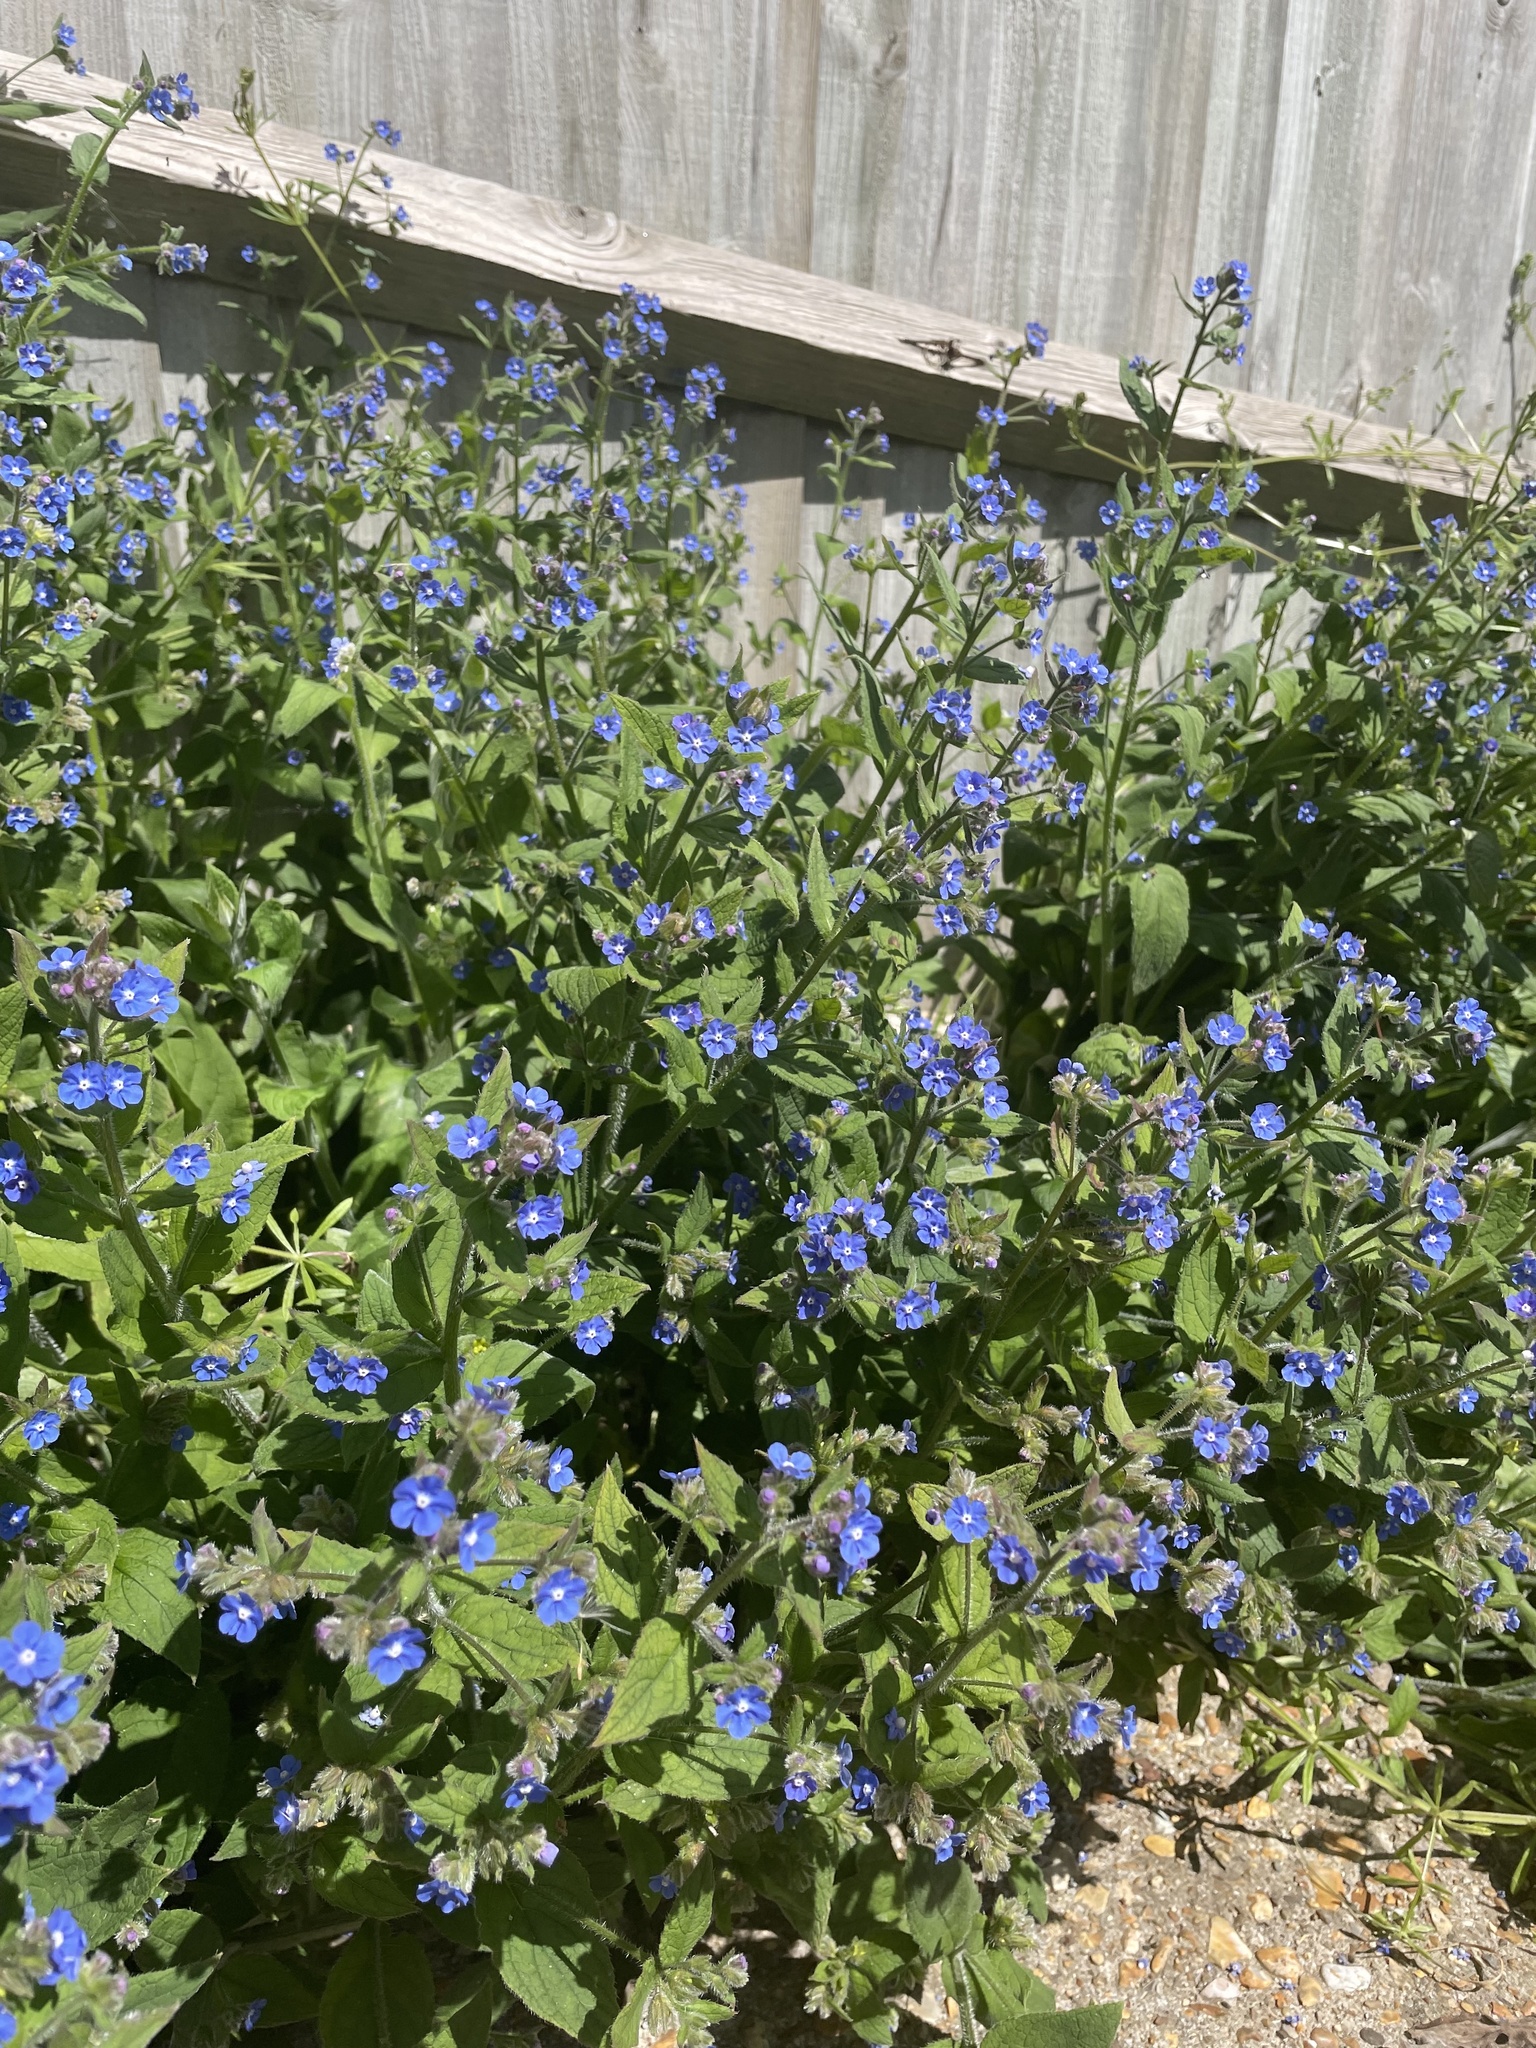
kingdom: Plantae
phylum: Tracheophyta
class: Magnoliopsida
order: Boraginales
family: Boraginaceae
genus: Pentaglottis
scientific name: Pentaglottis sempervirens
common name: Green alkanet
